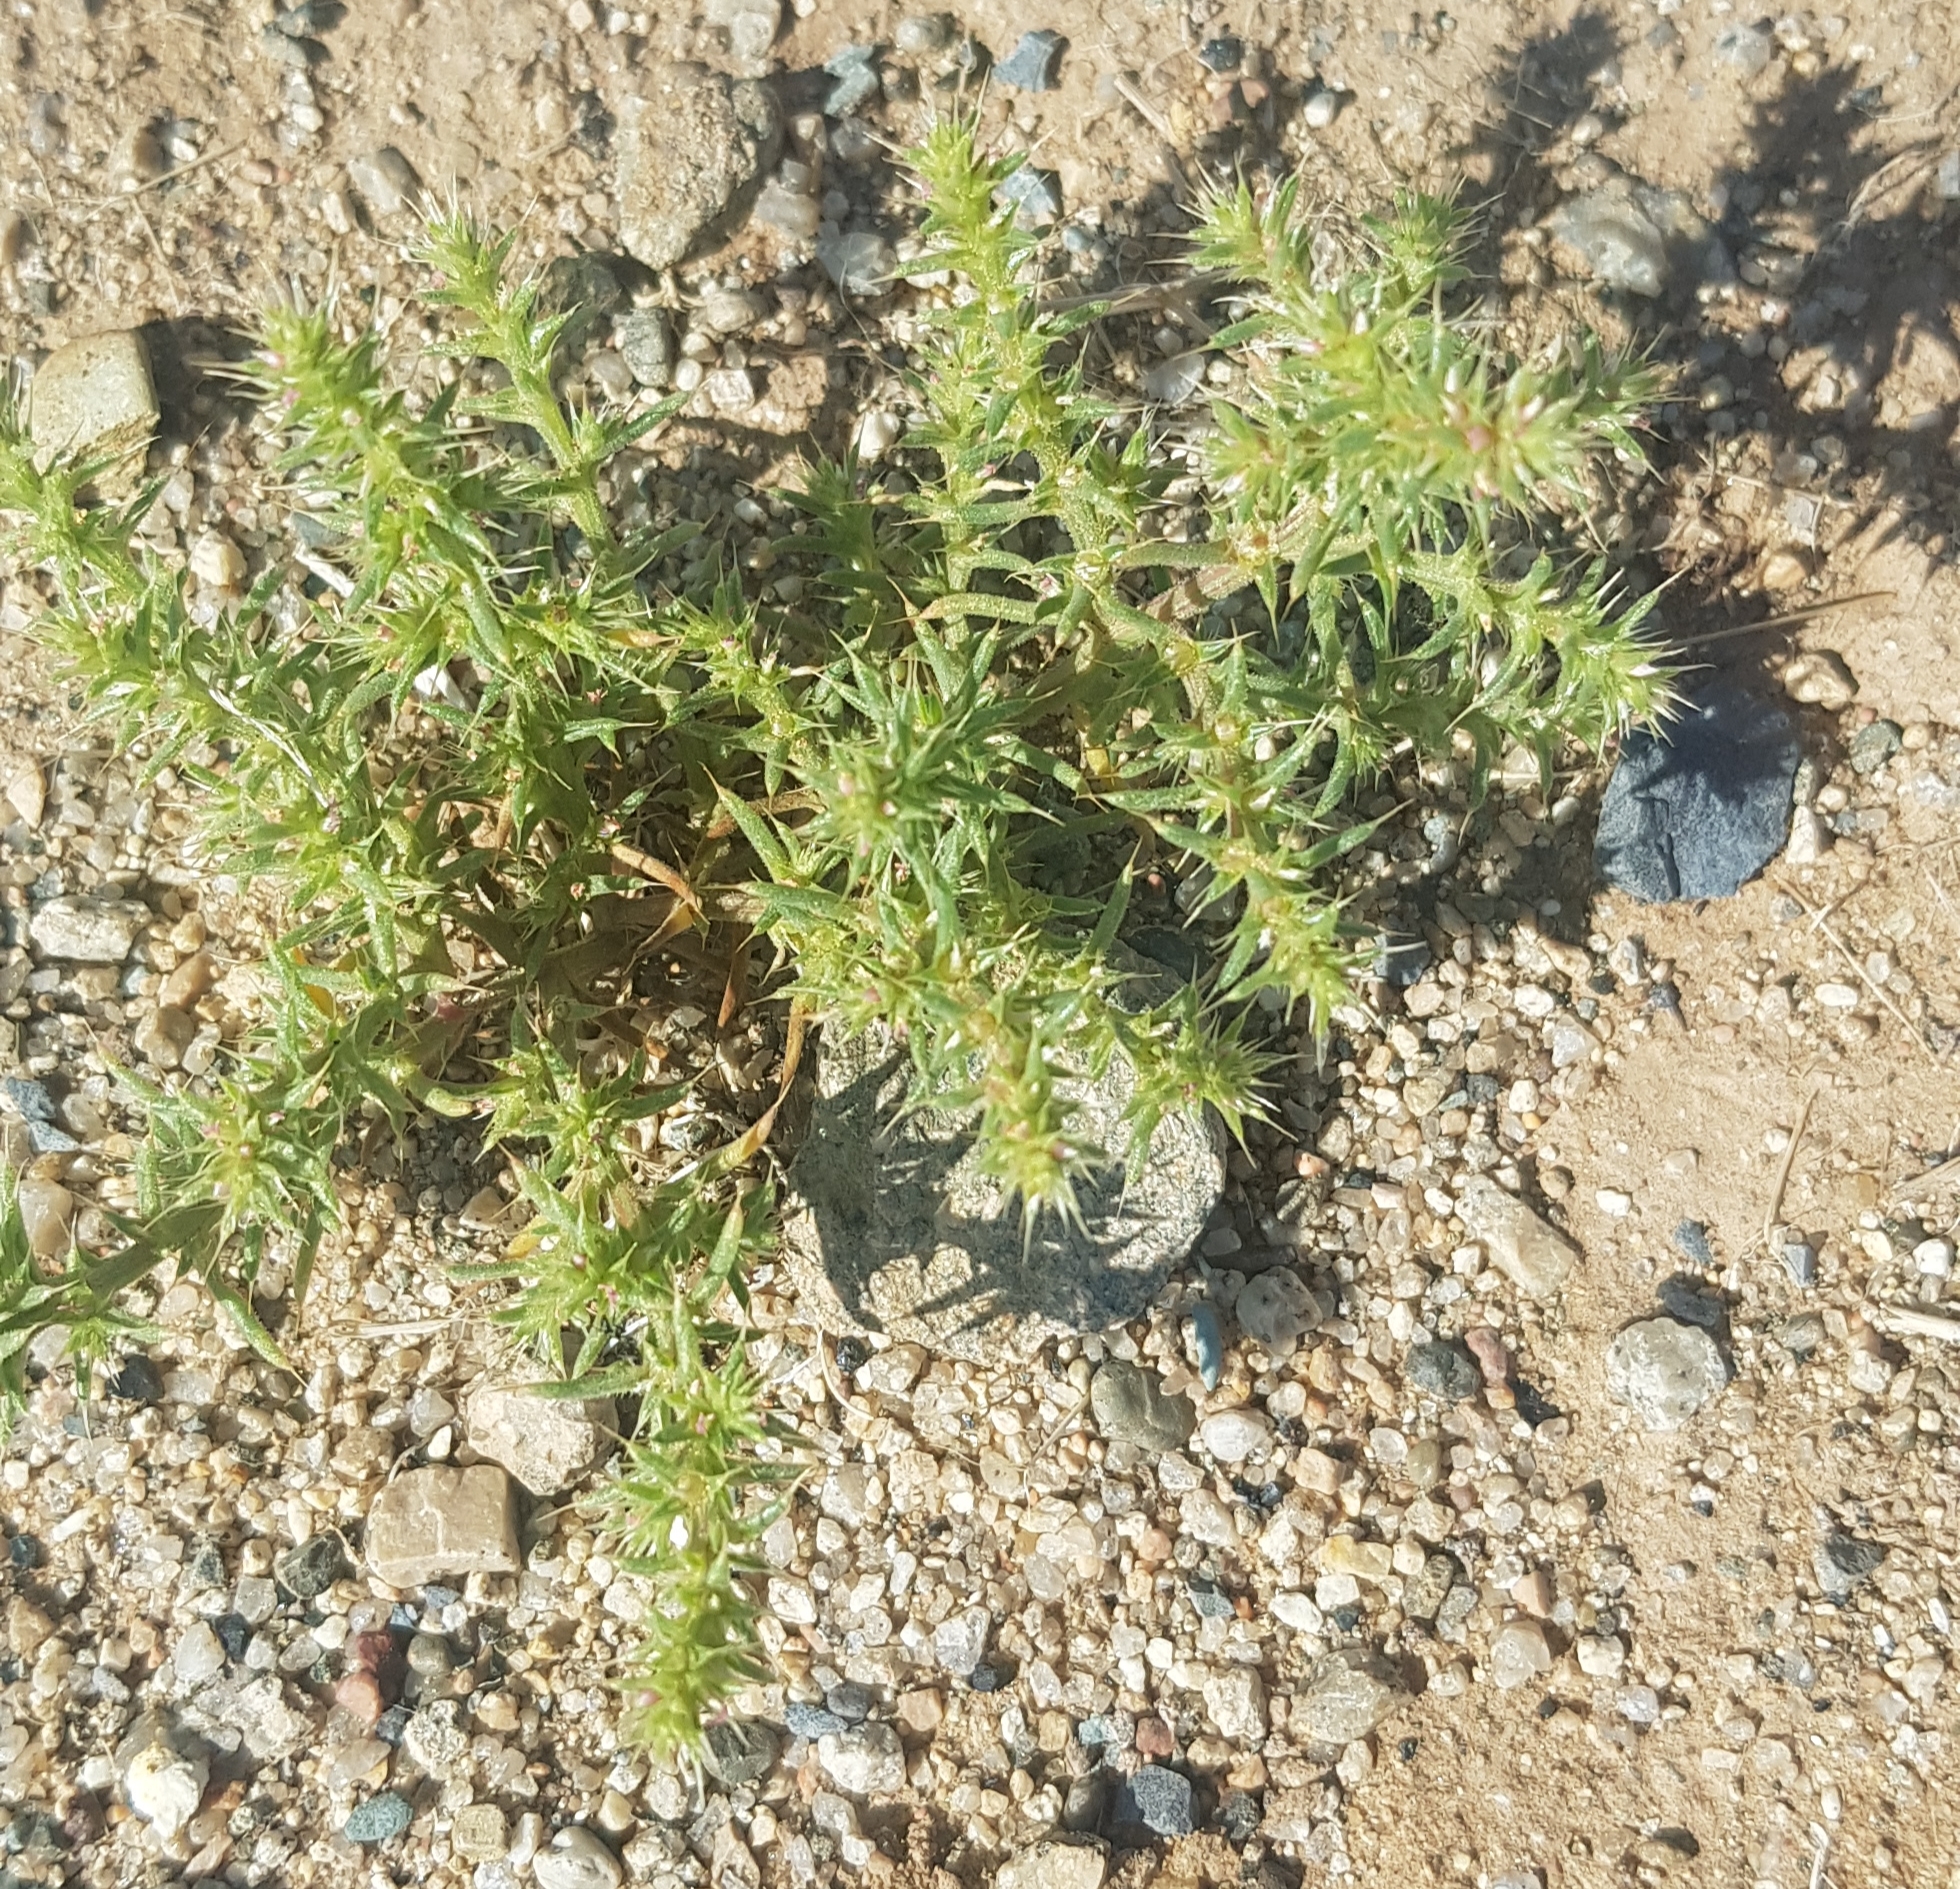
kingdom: Plantae
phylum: Tracheophyta
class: Magnoliopsida
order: Caryophyllales
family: Amaranthaceae
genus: Salsola
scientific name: Salsola tragus
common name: Prickly russian thistle
